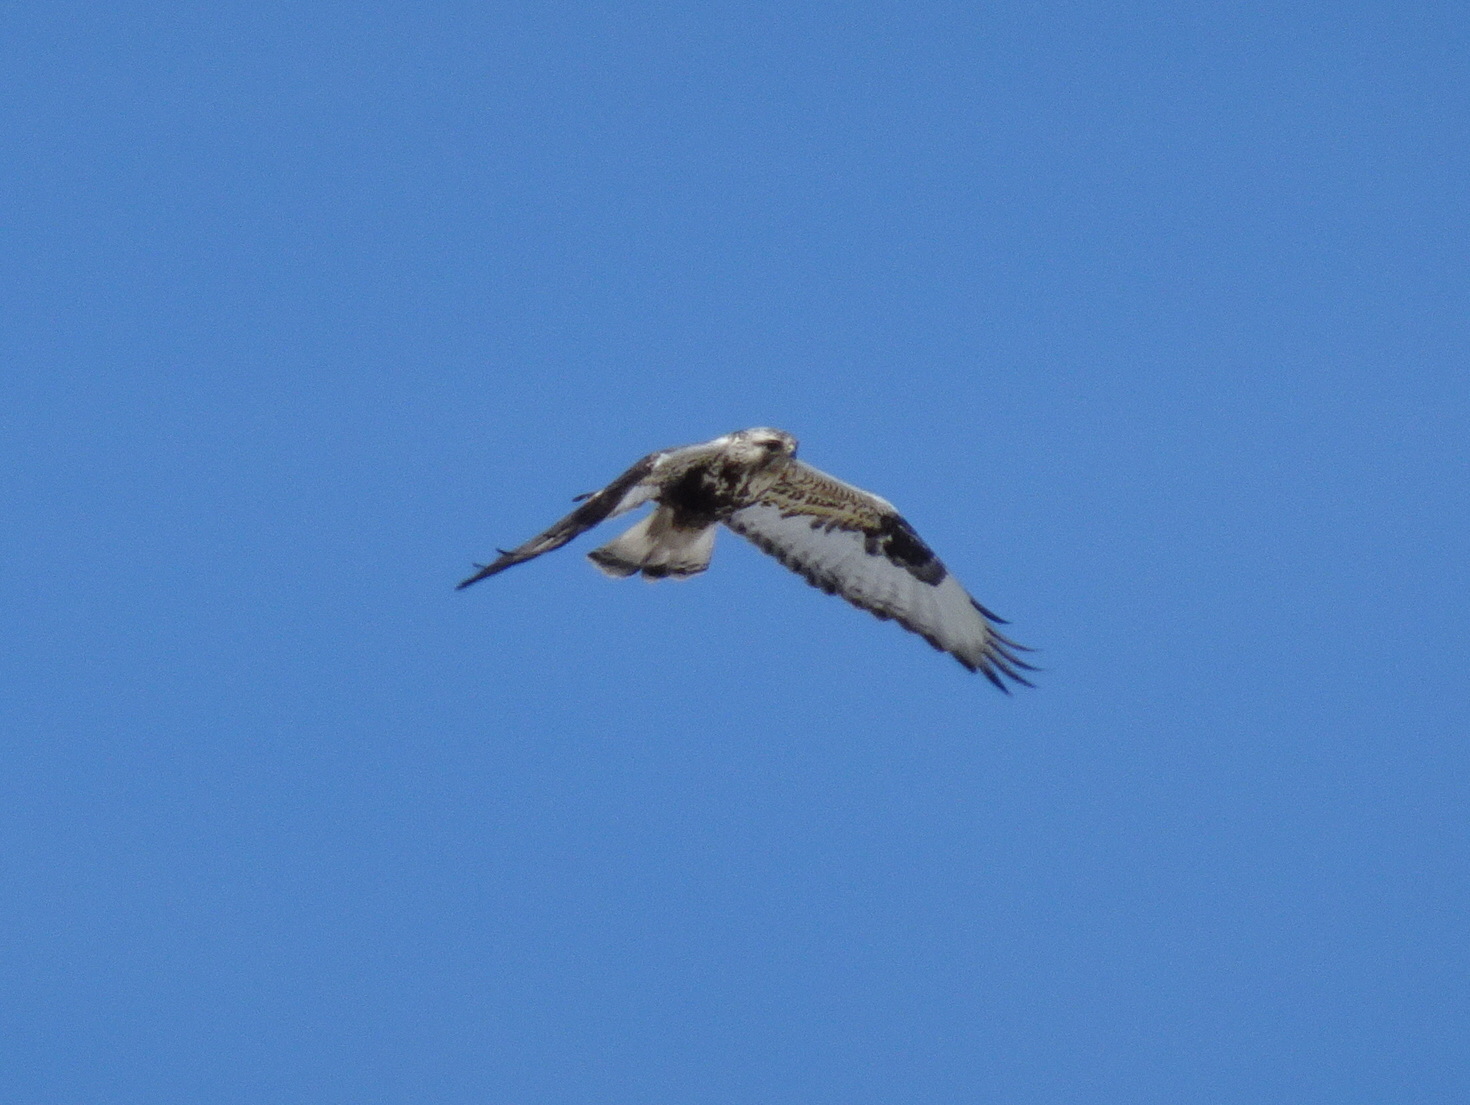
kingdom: Animalia
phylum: Chordata
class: Aves
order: Accipitriformes
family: Accipitridae
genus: Buteo
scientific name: Buteo lagopus
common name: Rough-legged buzzard
